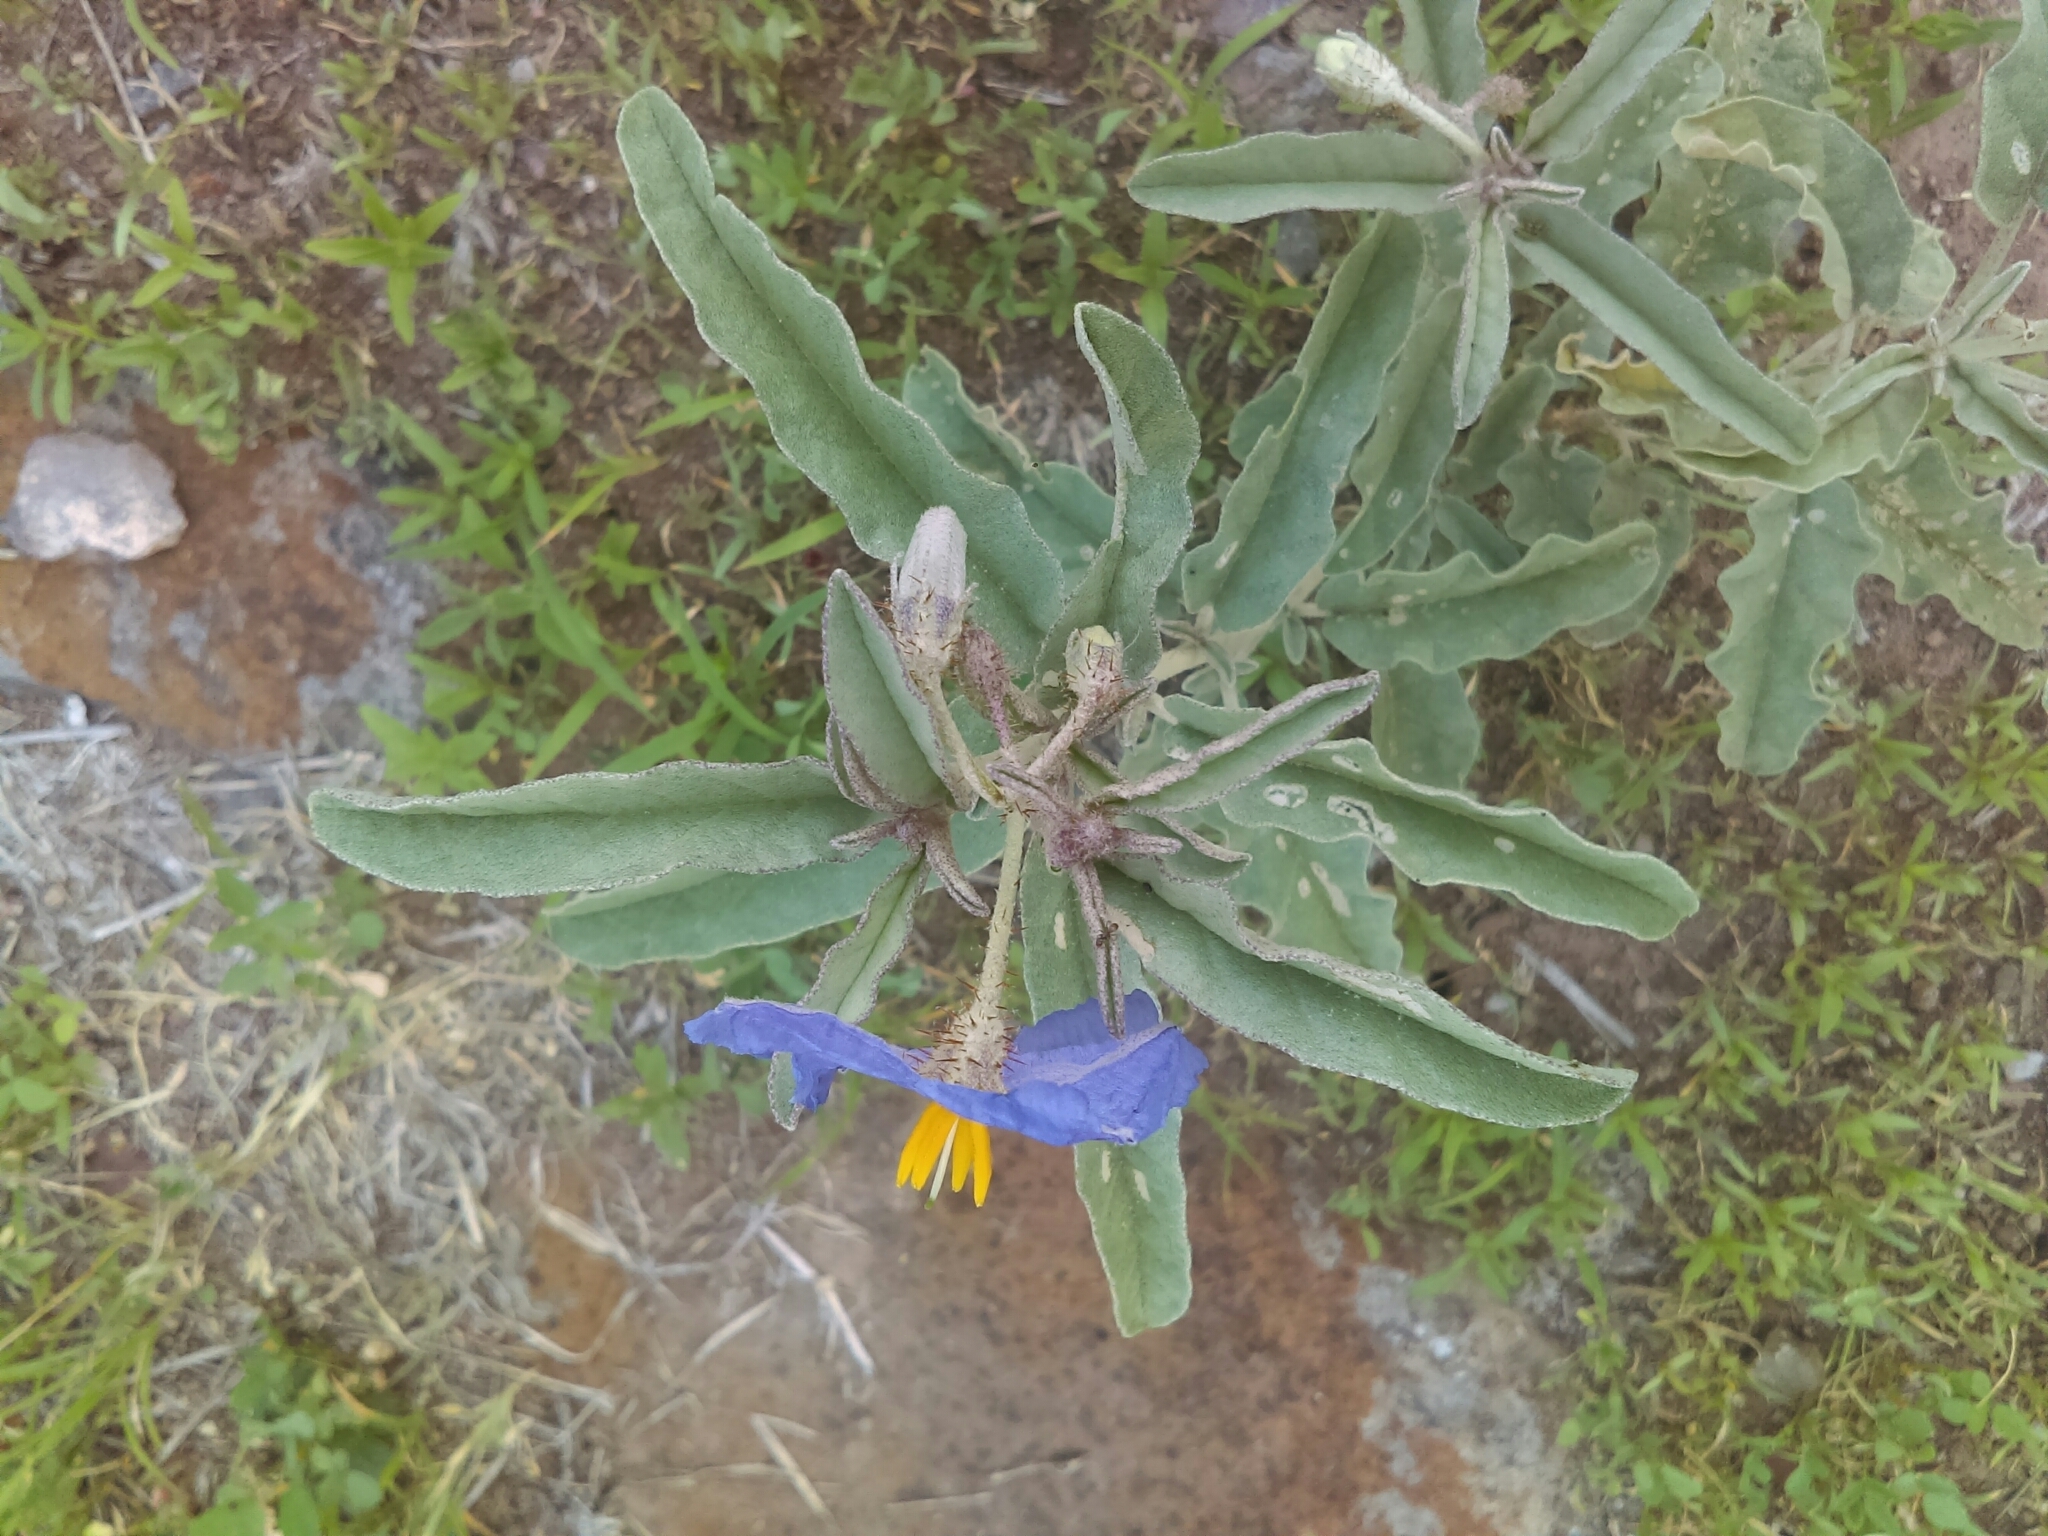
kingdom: Plantae
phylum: Tracheophyta
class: Magnoliopsida
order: Solanales
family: Solanaceae
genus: Solanum
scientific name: Solanum elaeagnifolium
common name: Silverleaf nightshade
